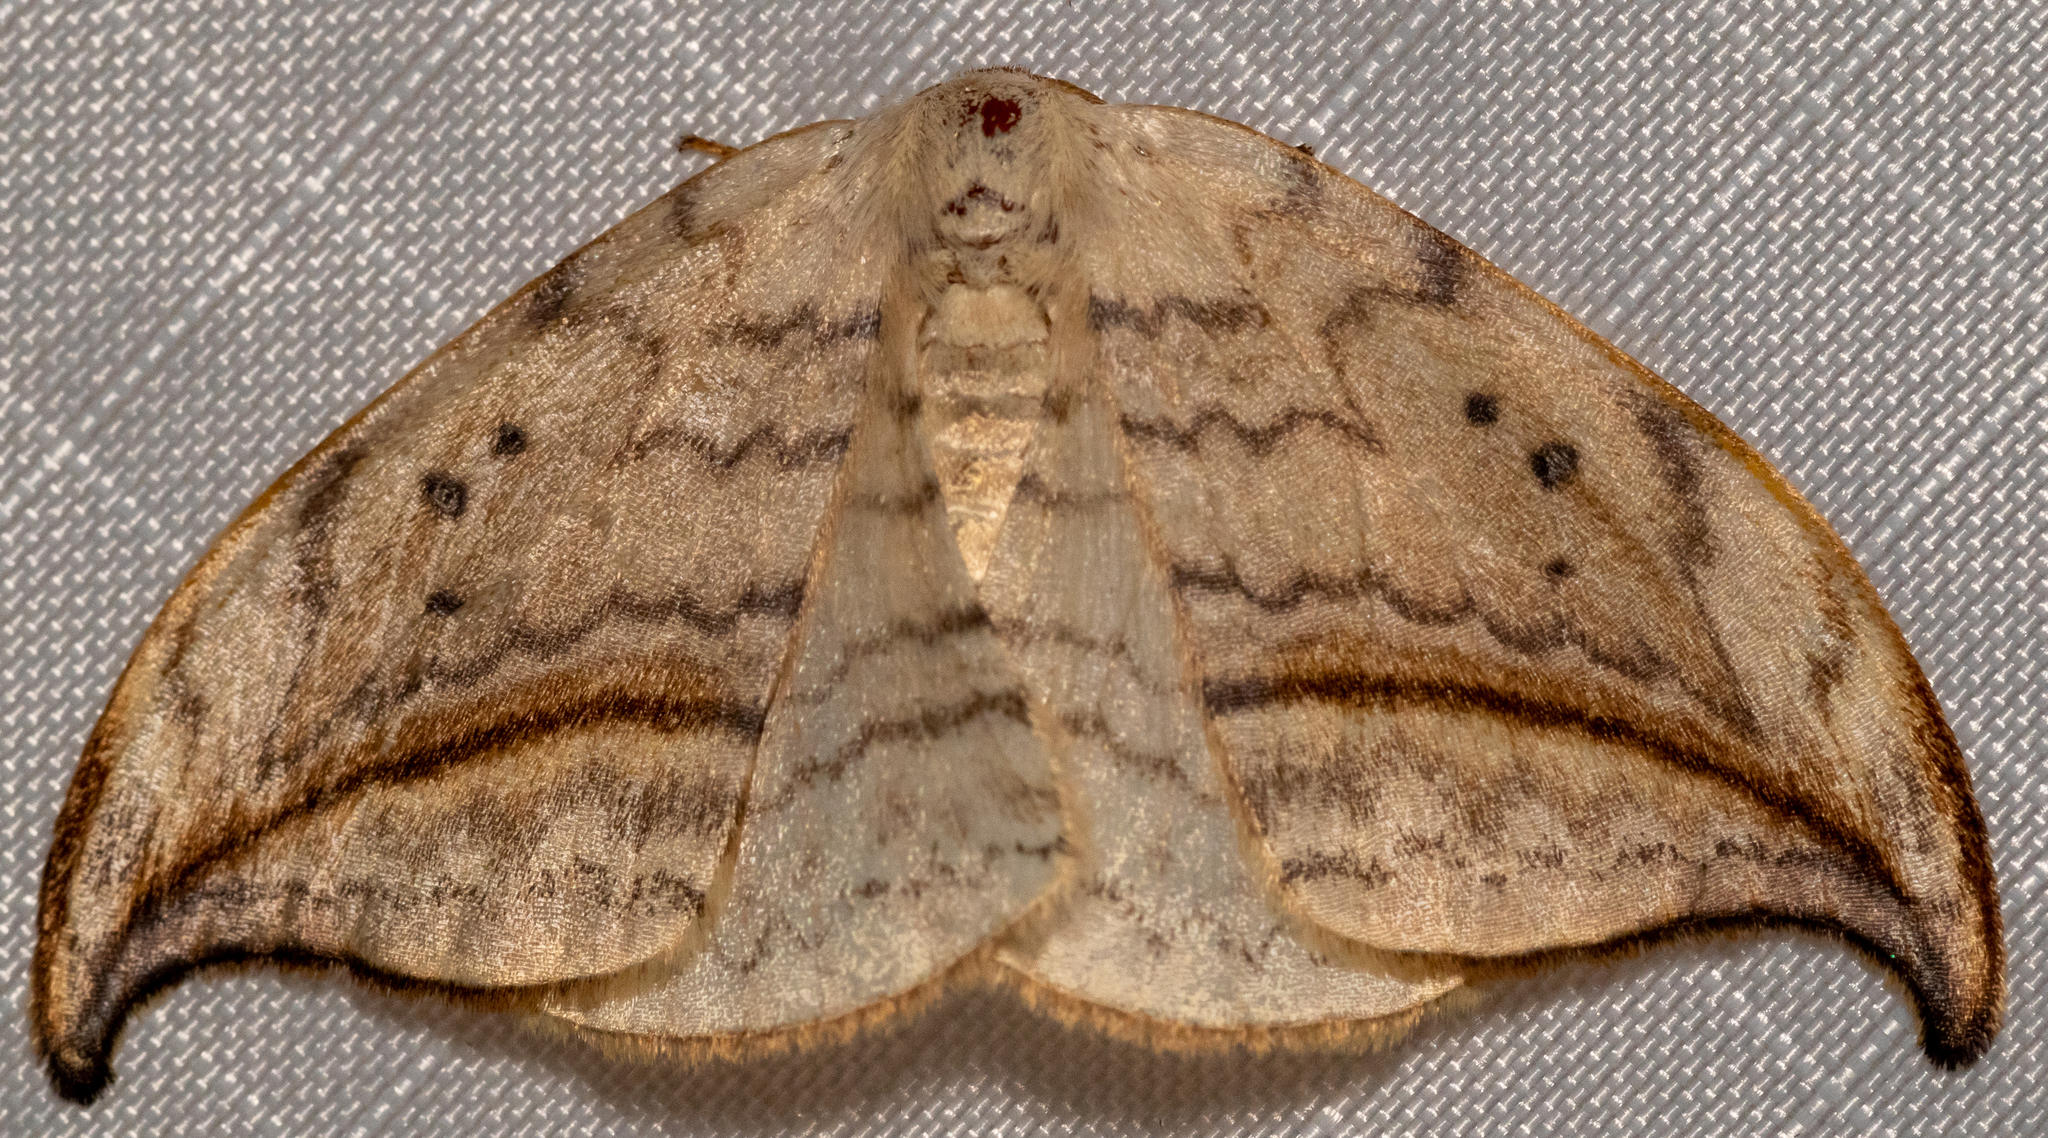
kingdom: Animalia
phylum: Arthropoda
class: Insecta
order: Lepidoptera
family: Drepanidae
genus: Drepana
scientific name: Drepana arcuata
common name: Arched hooktip moth
